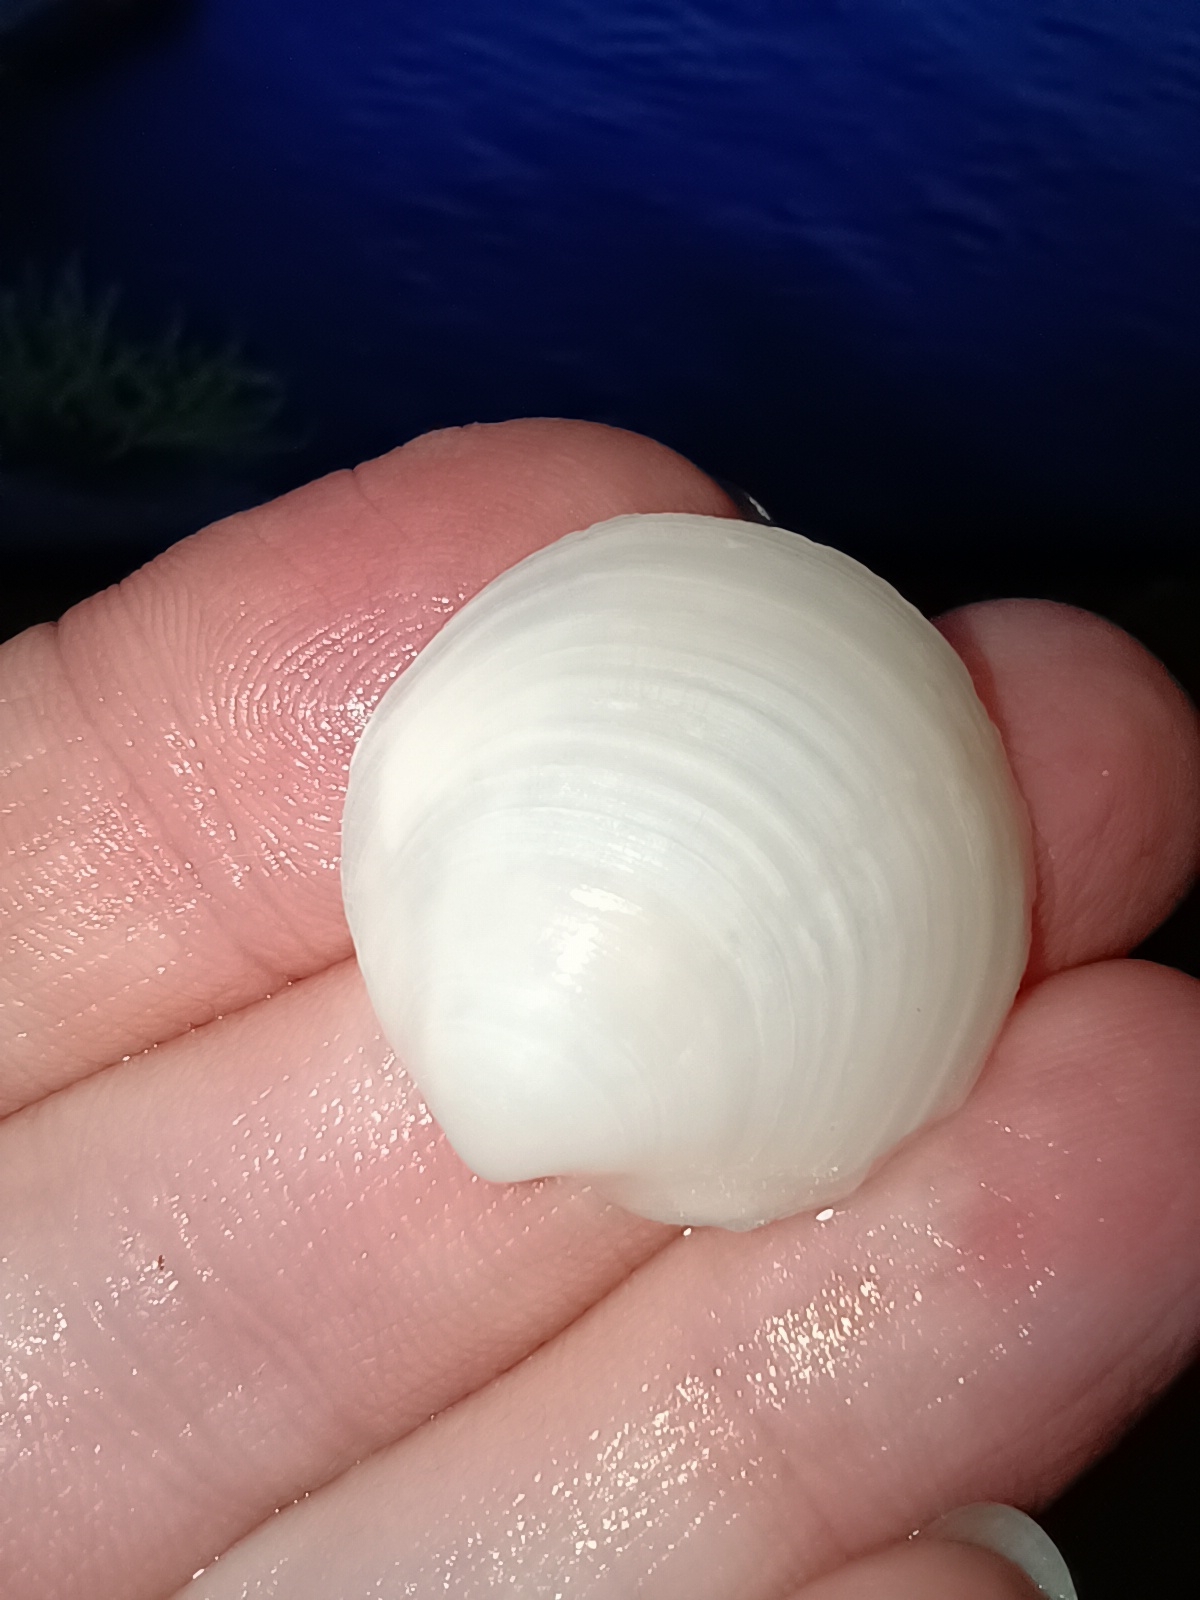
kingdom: Animalia
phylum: Mollusca
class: Bivalvia
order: Lucinida
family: Lucinidae
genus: Loripes
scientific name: Loripes orbiculatus
